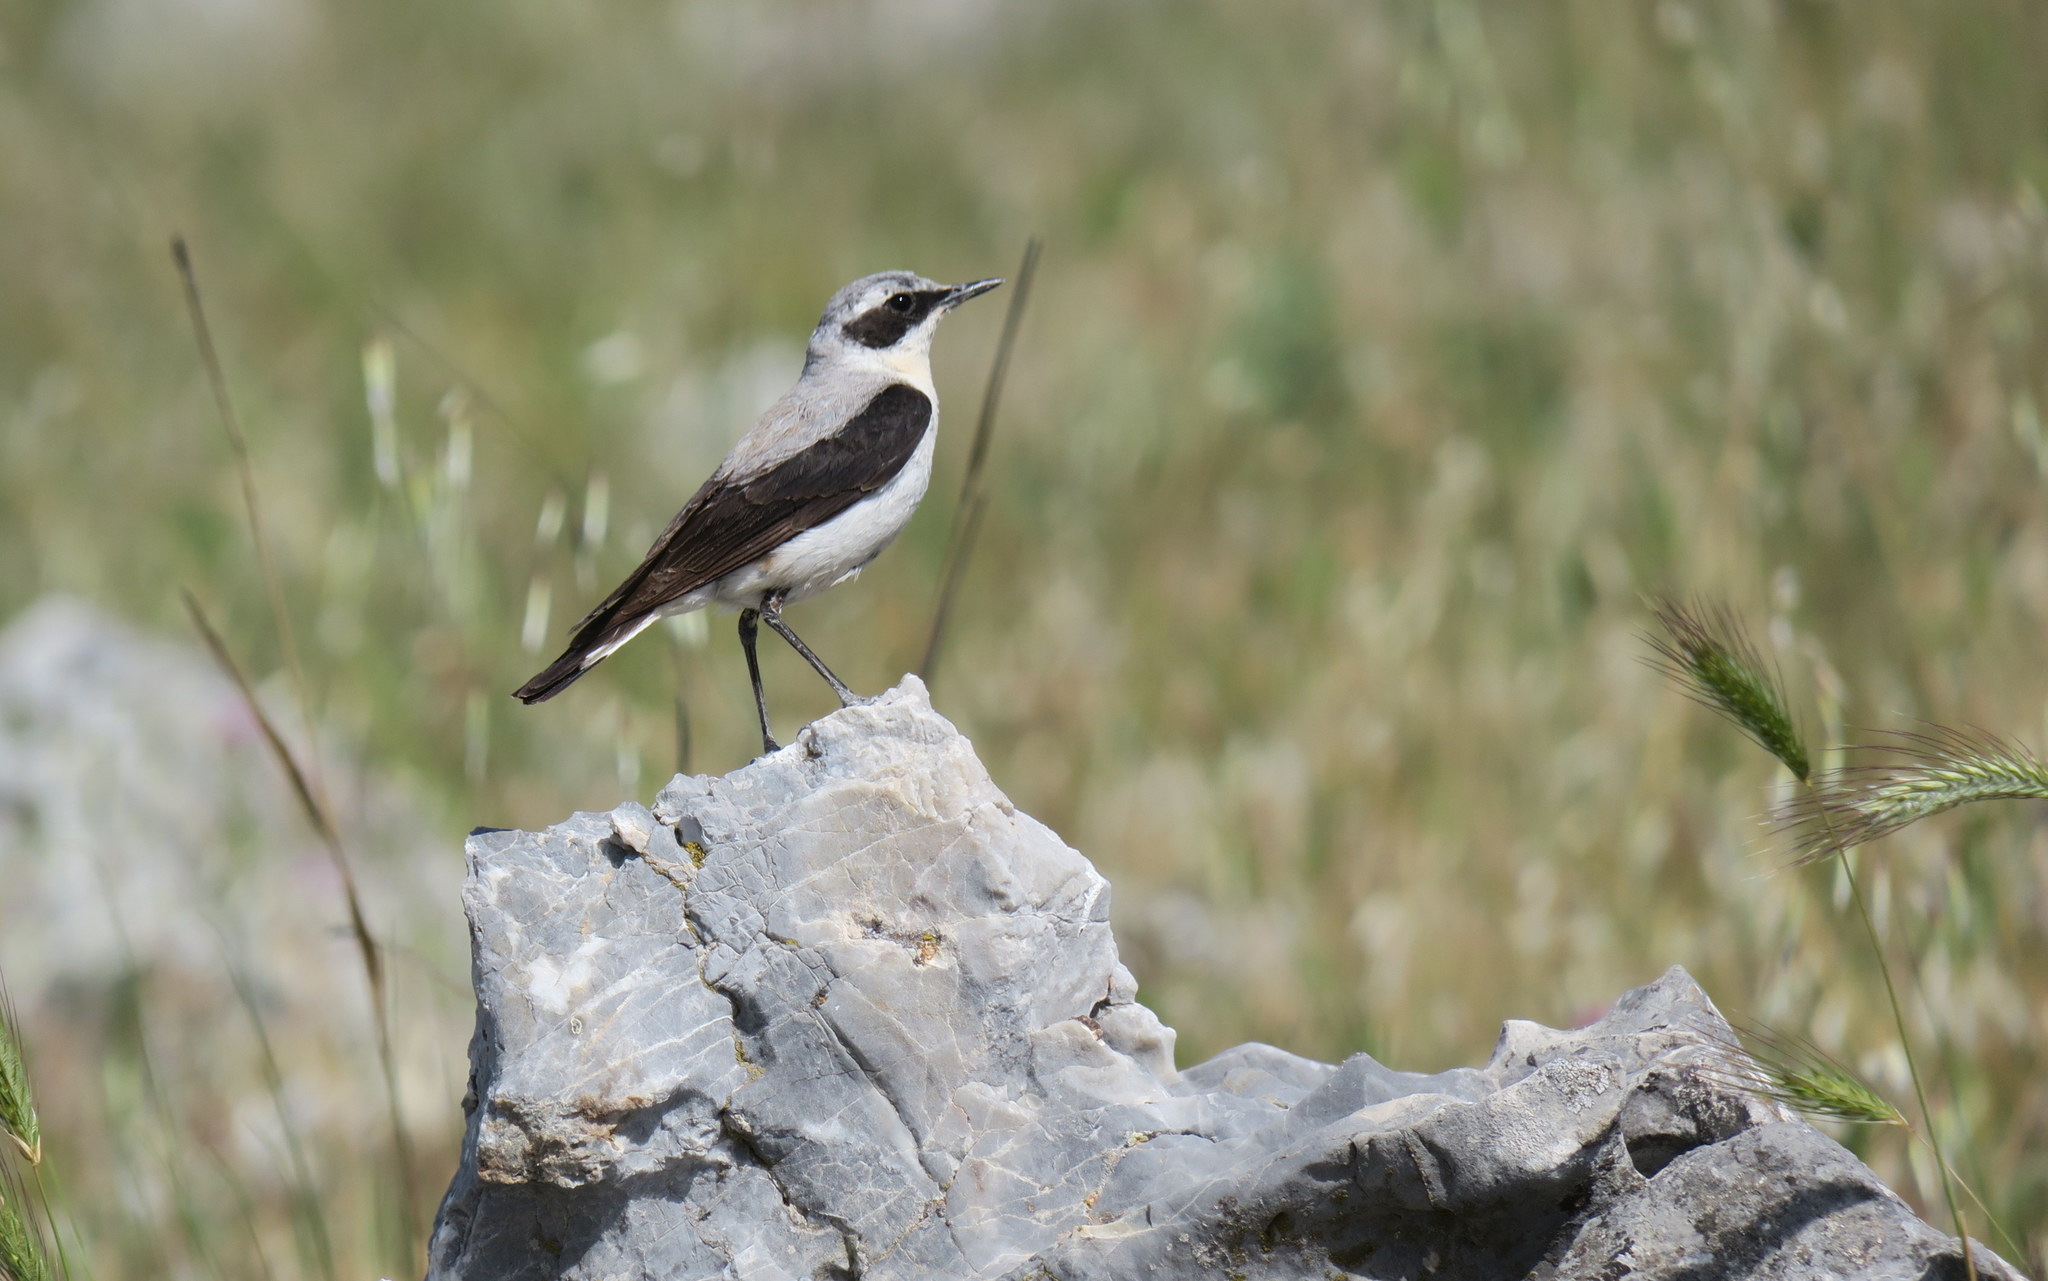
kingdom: Animalia
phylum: Chordata
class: Aves
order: Passeriformes
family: Muscicapidae
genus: Oenanthe
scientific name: Oenanthe oenanthe
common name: Northern wheatear
